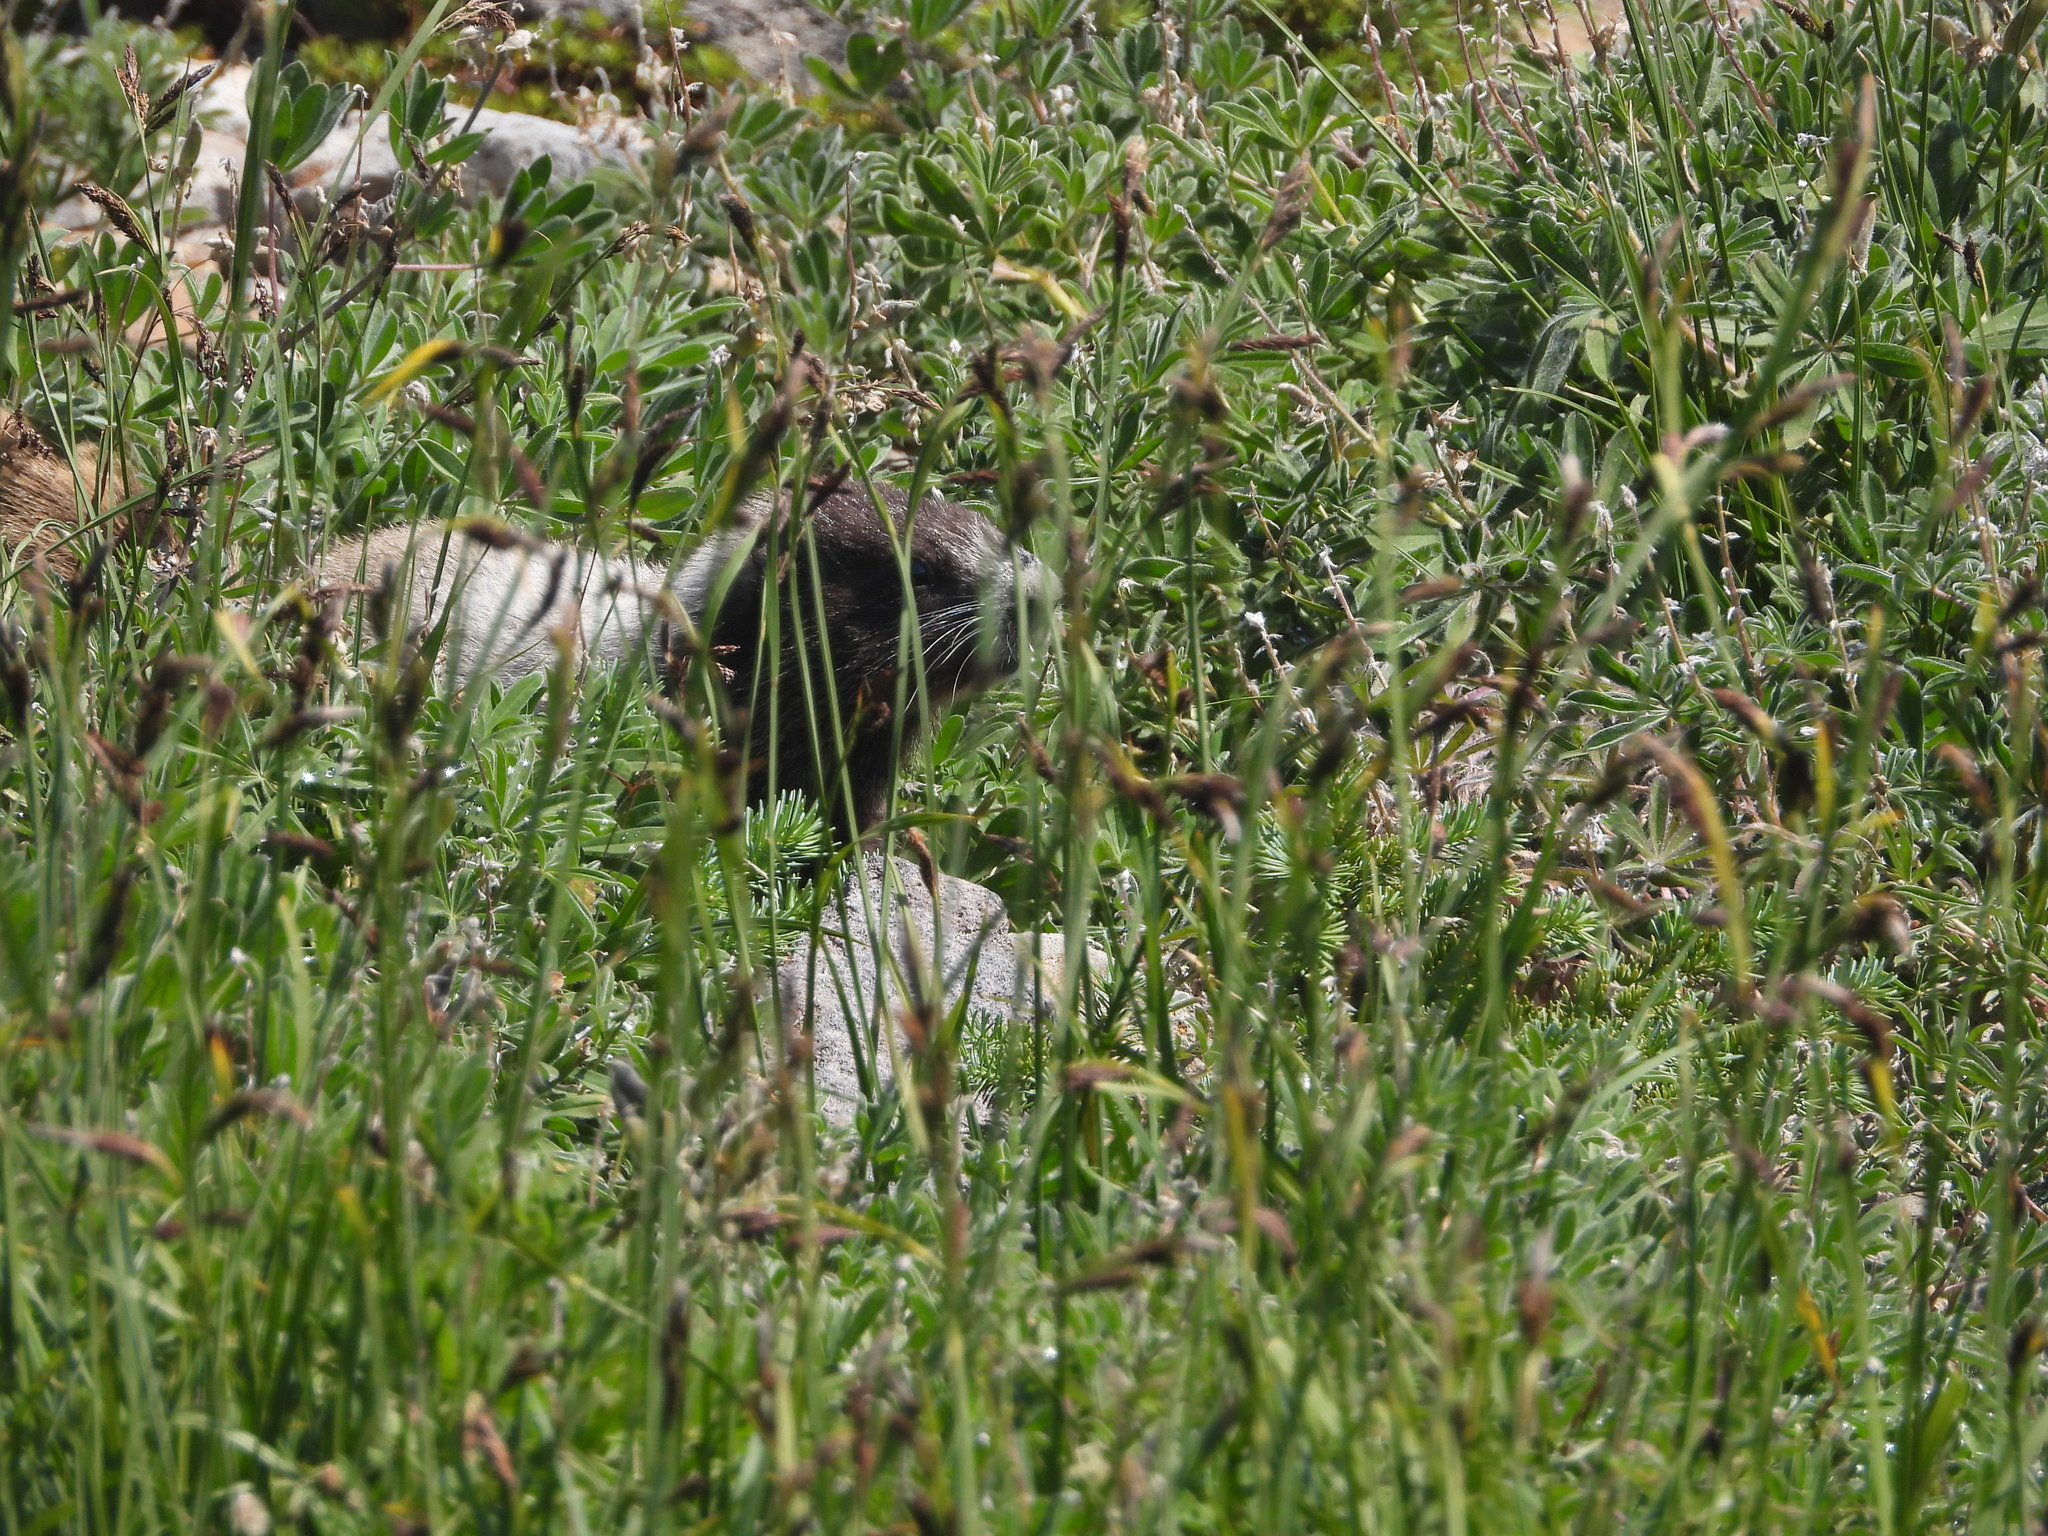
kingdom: Animalia
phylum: Chordata
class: Mammalia
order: Rodentia
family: Sciuridae
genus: Marmota
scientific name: Marmota caligata
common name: Hoary marmot
